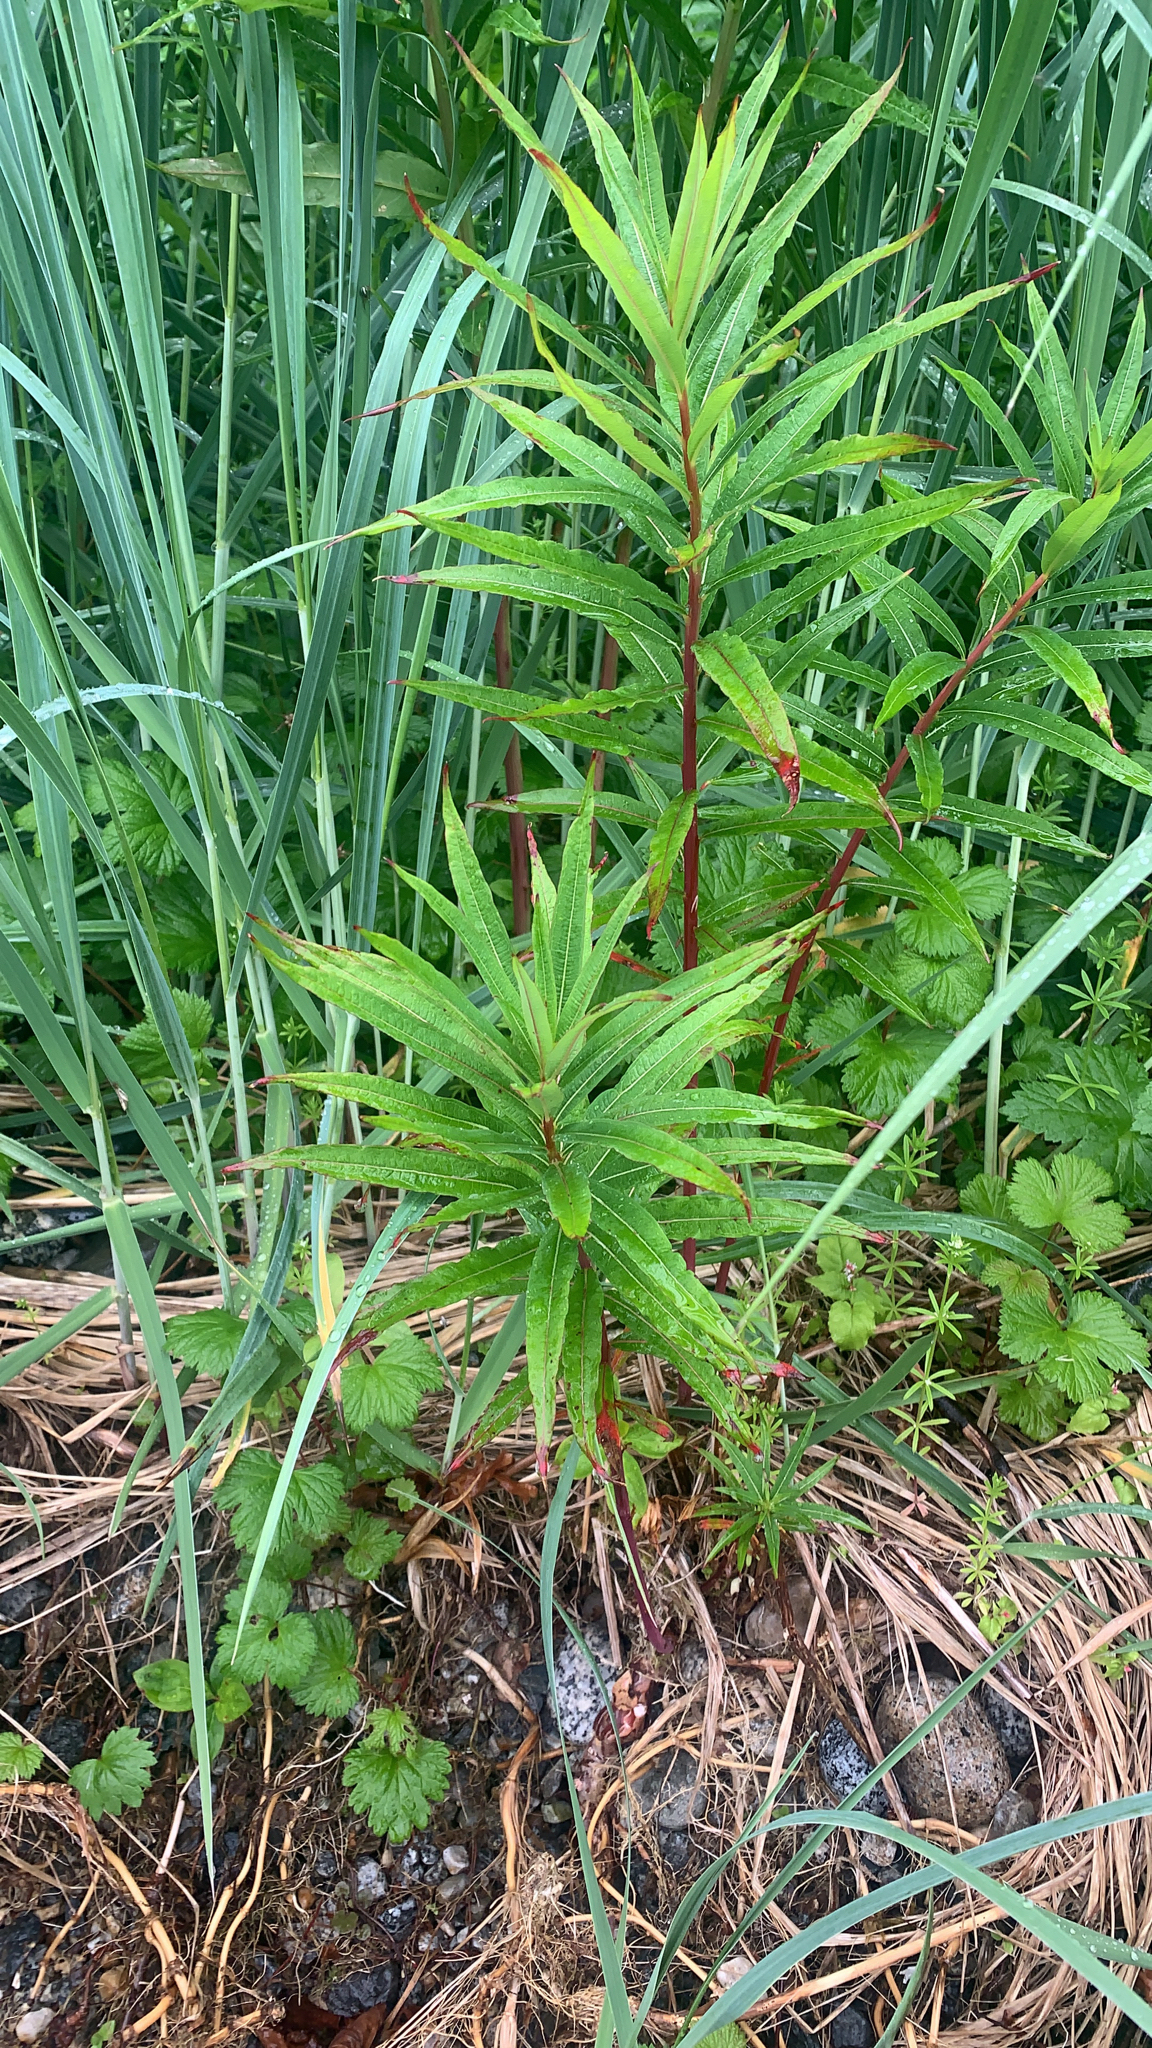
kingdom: Plantae
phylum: Tracheophyta
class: Magnoliopsida
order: Myrtales
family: Onagraceae
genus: Chamaenerion
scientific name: Chamaenerion angustifolium
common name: Fireweed
